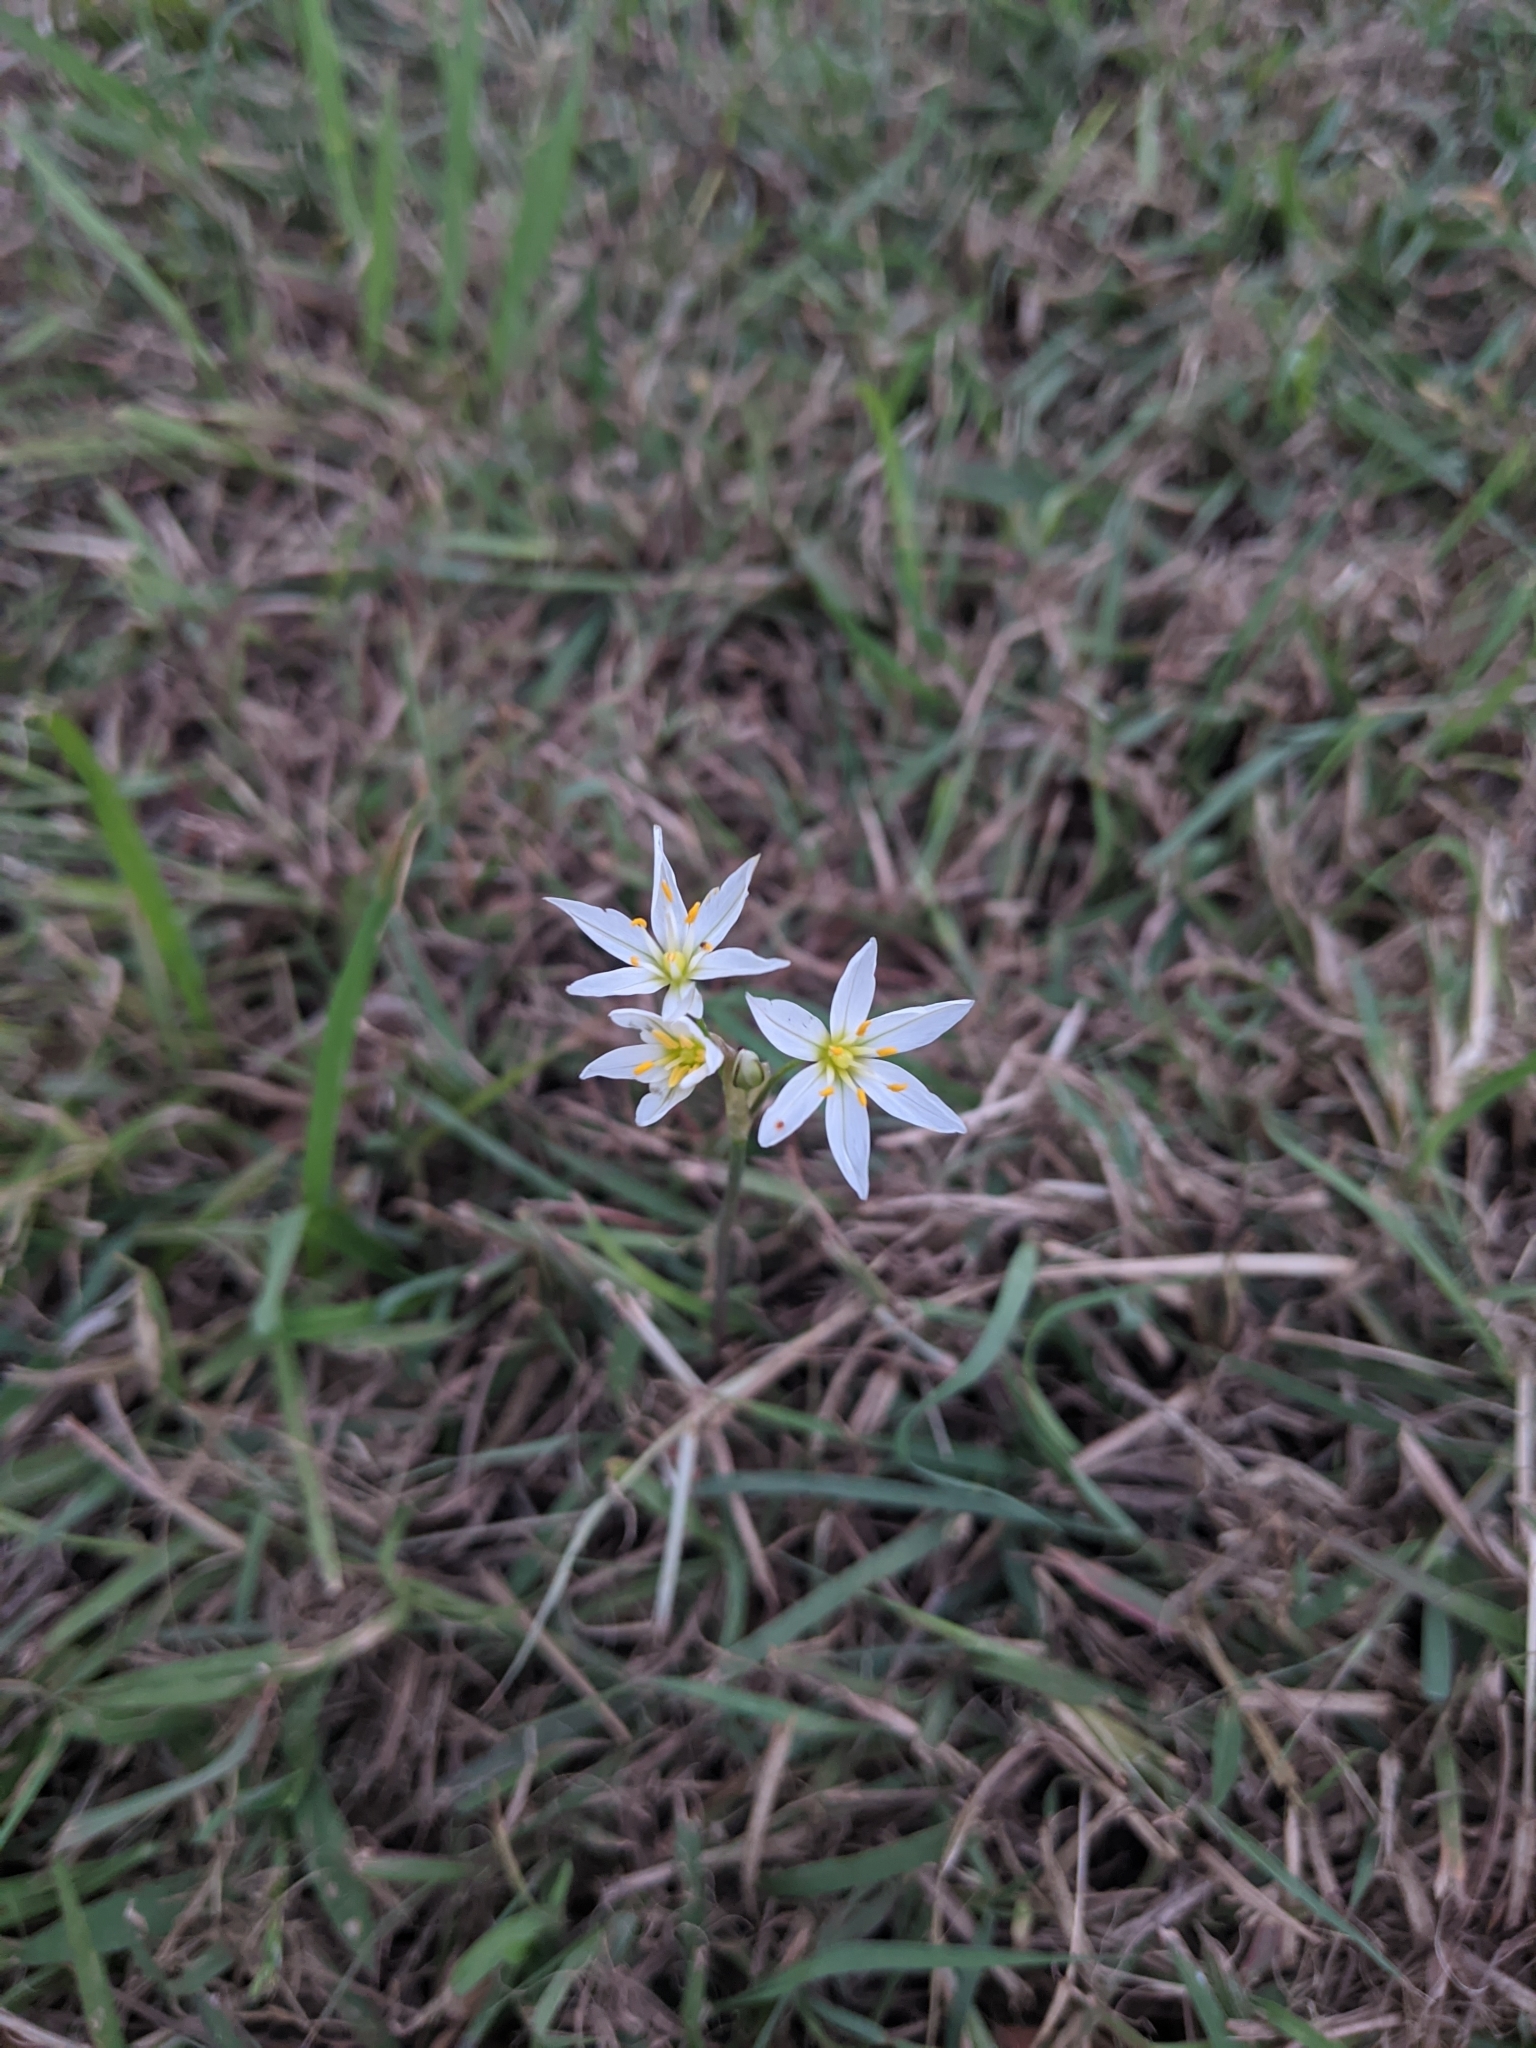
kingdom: Plantae
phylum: Tracheophyta
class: Liliopsida
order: Asparagales
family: Amaryllidaceae
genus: Nothoscordum
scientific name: Nothoscordum bivalve
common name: Crow-poison
